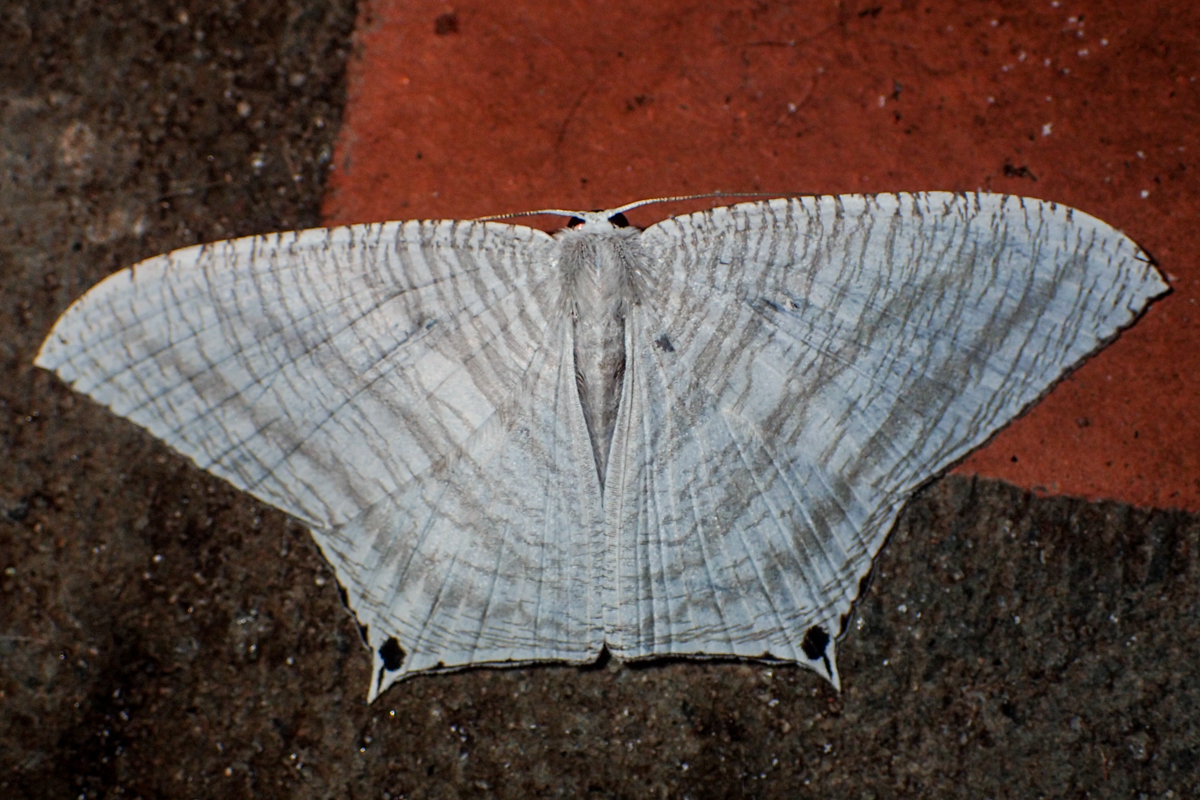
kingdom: Animalia
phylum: Arthropoda
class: Insecta
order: Lepidoptera
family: Uraniidae
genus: Micronia
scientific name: Micronia aculeata
